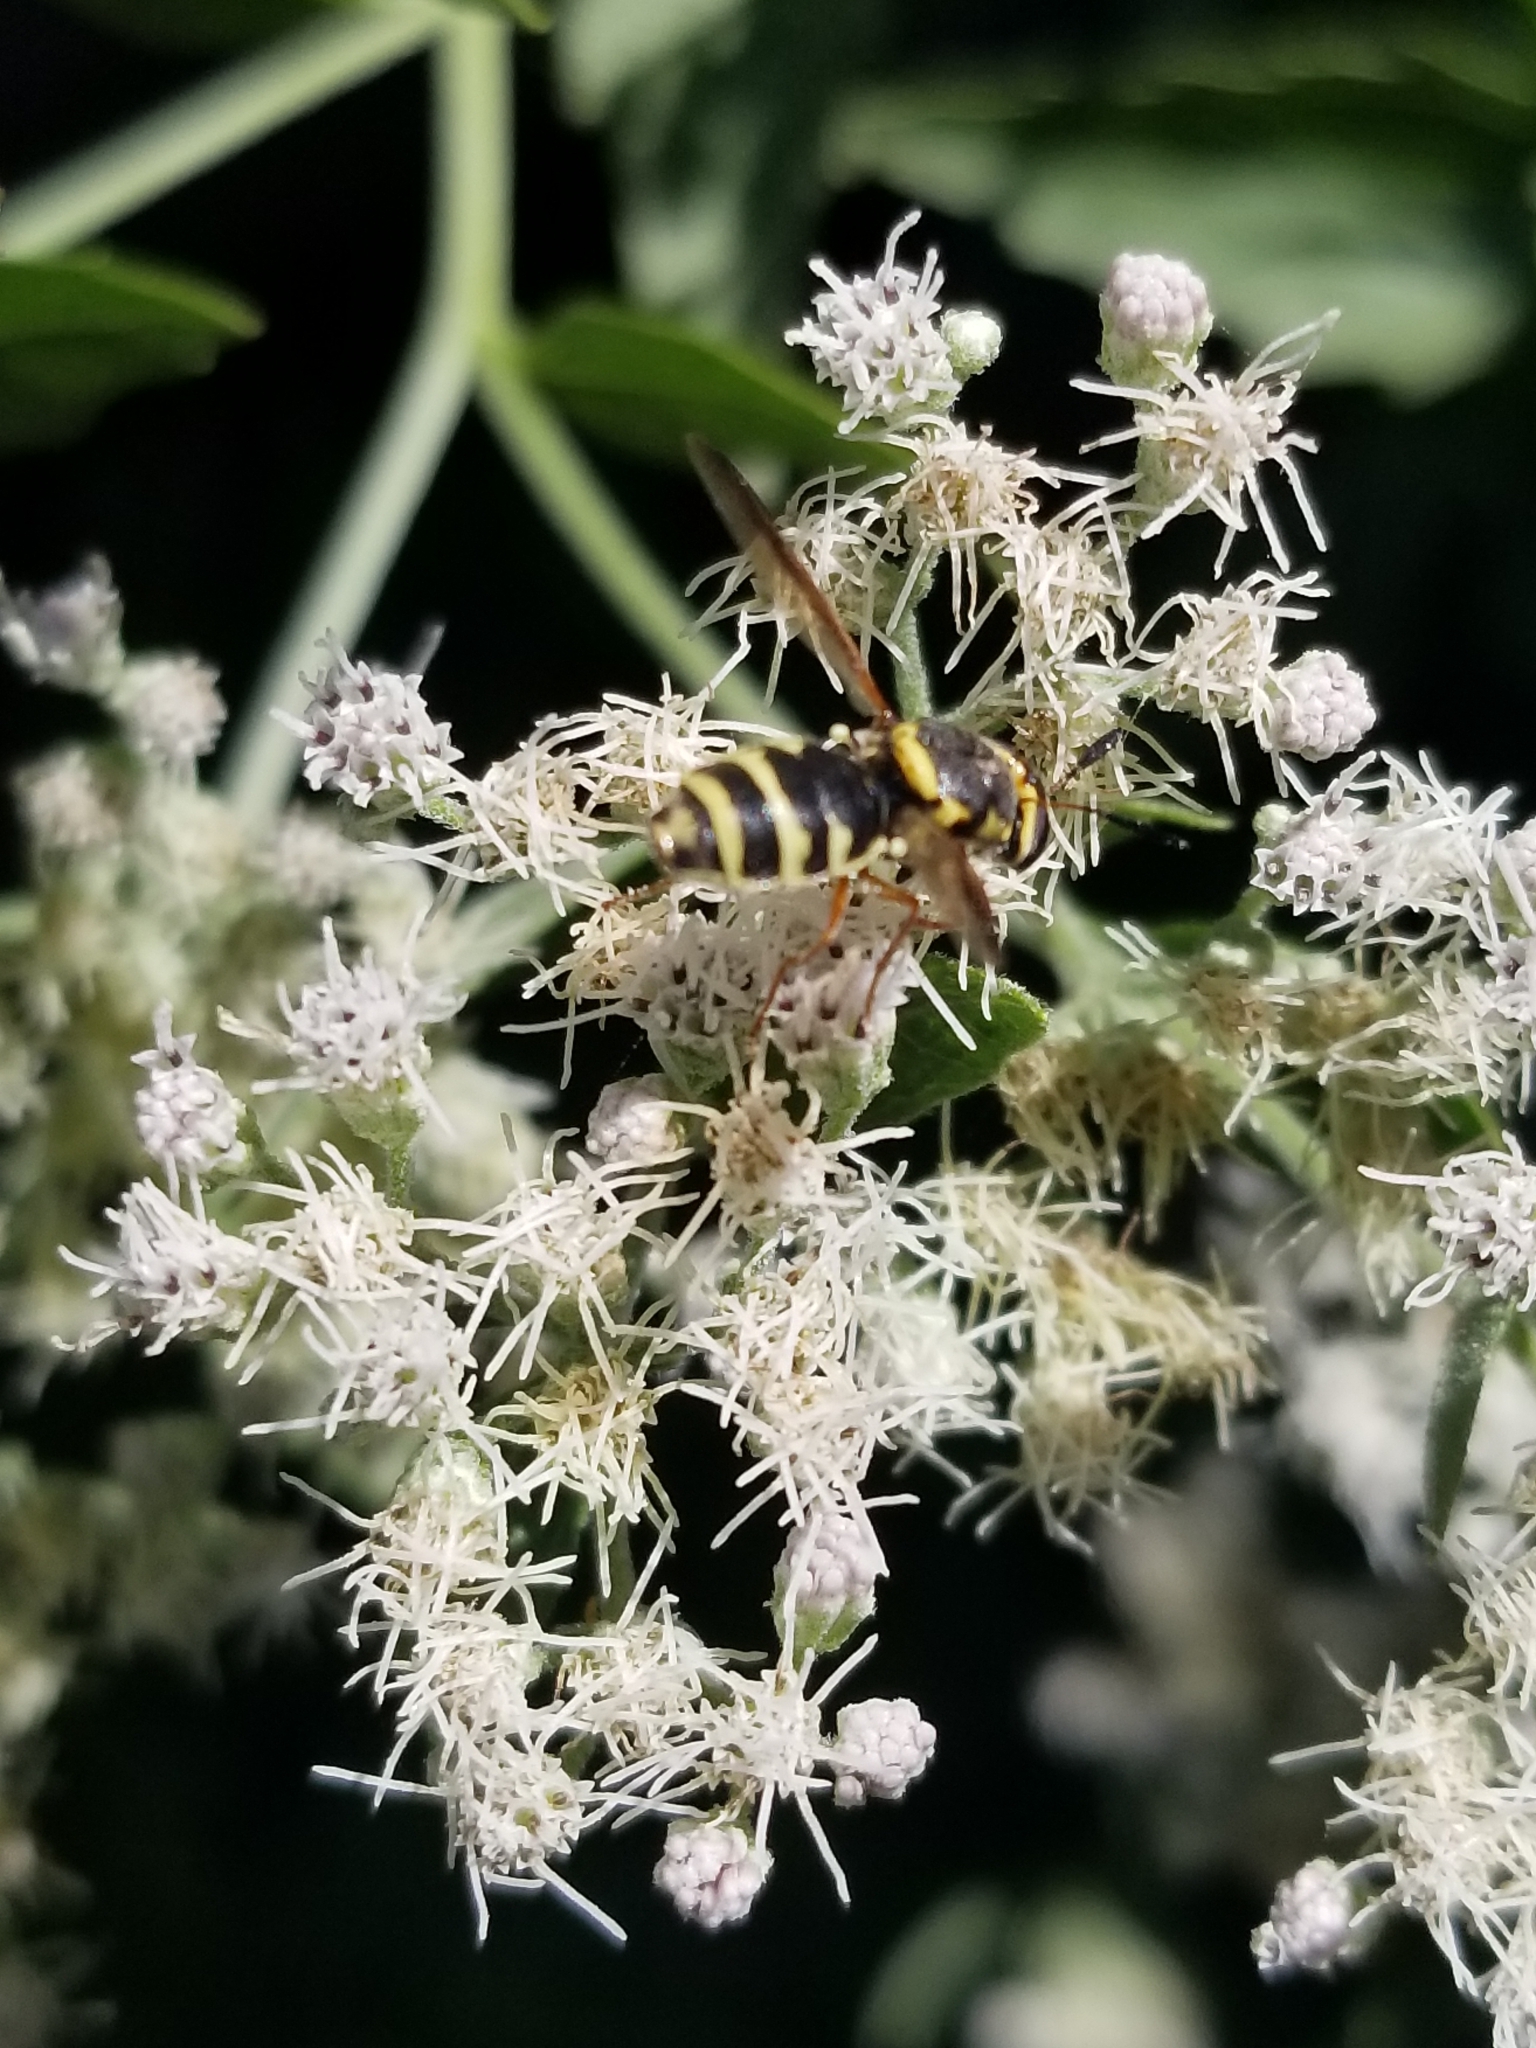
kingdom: Animalia
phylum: Arthropoda
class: Insecta
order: Diptera
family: Stratiomyidae
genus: Hoplitimyia
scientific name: Hoplitimyia constans
